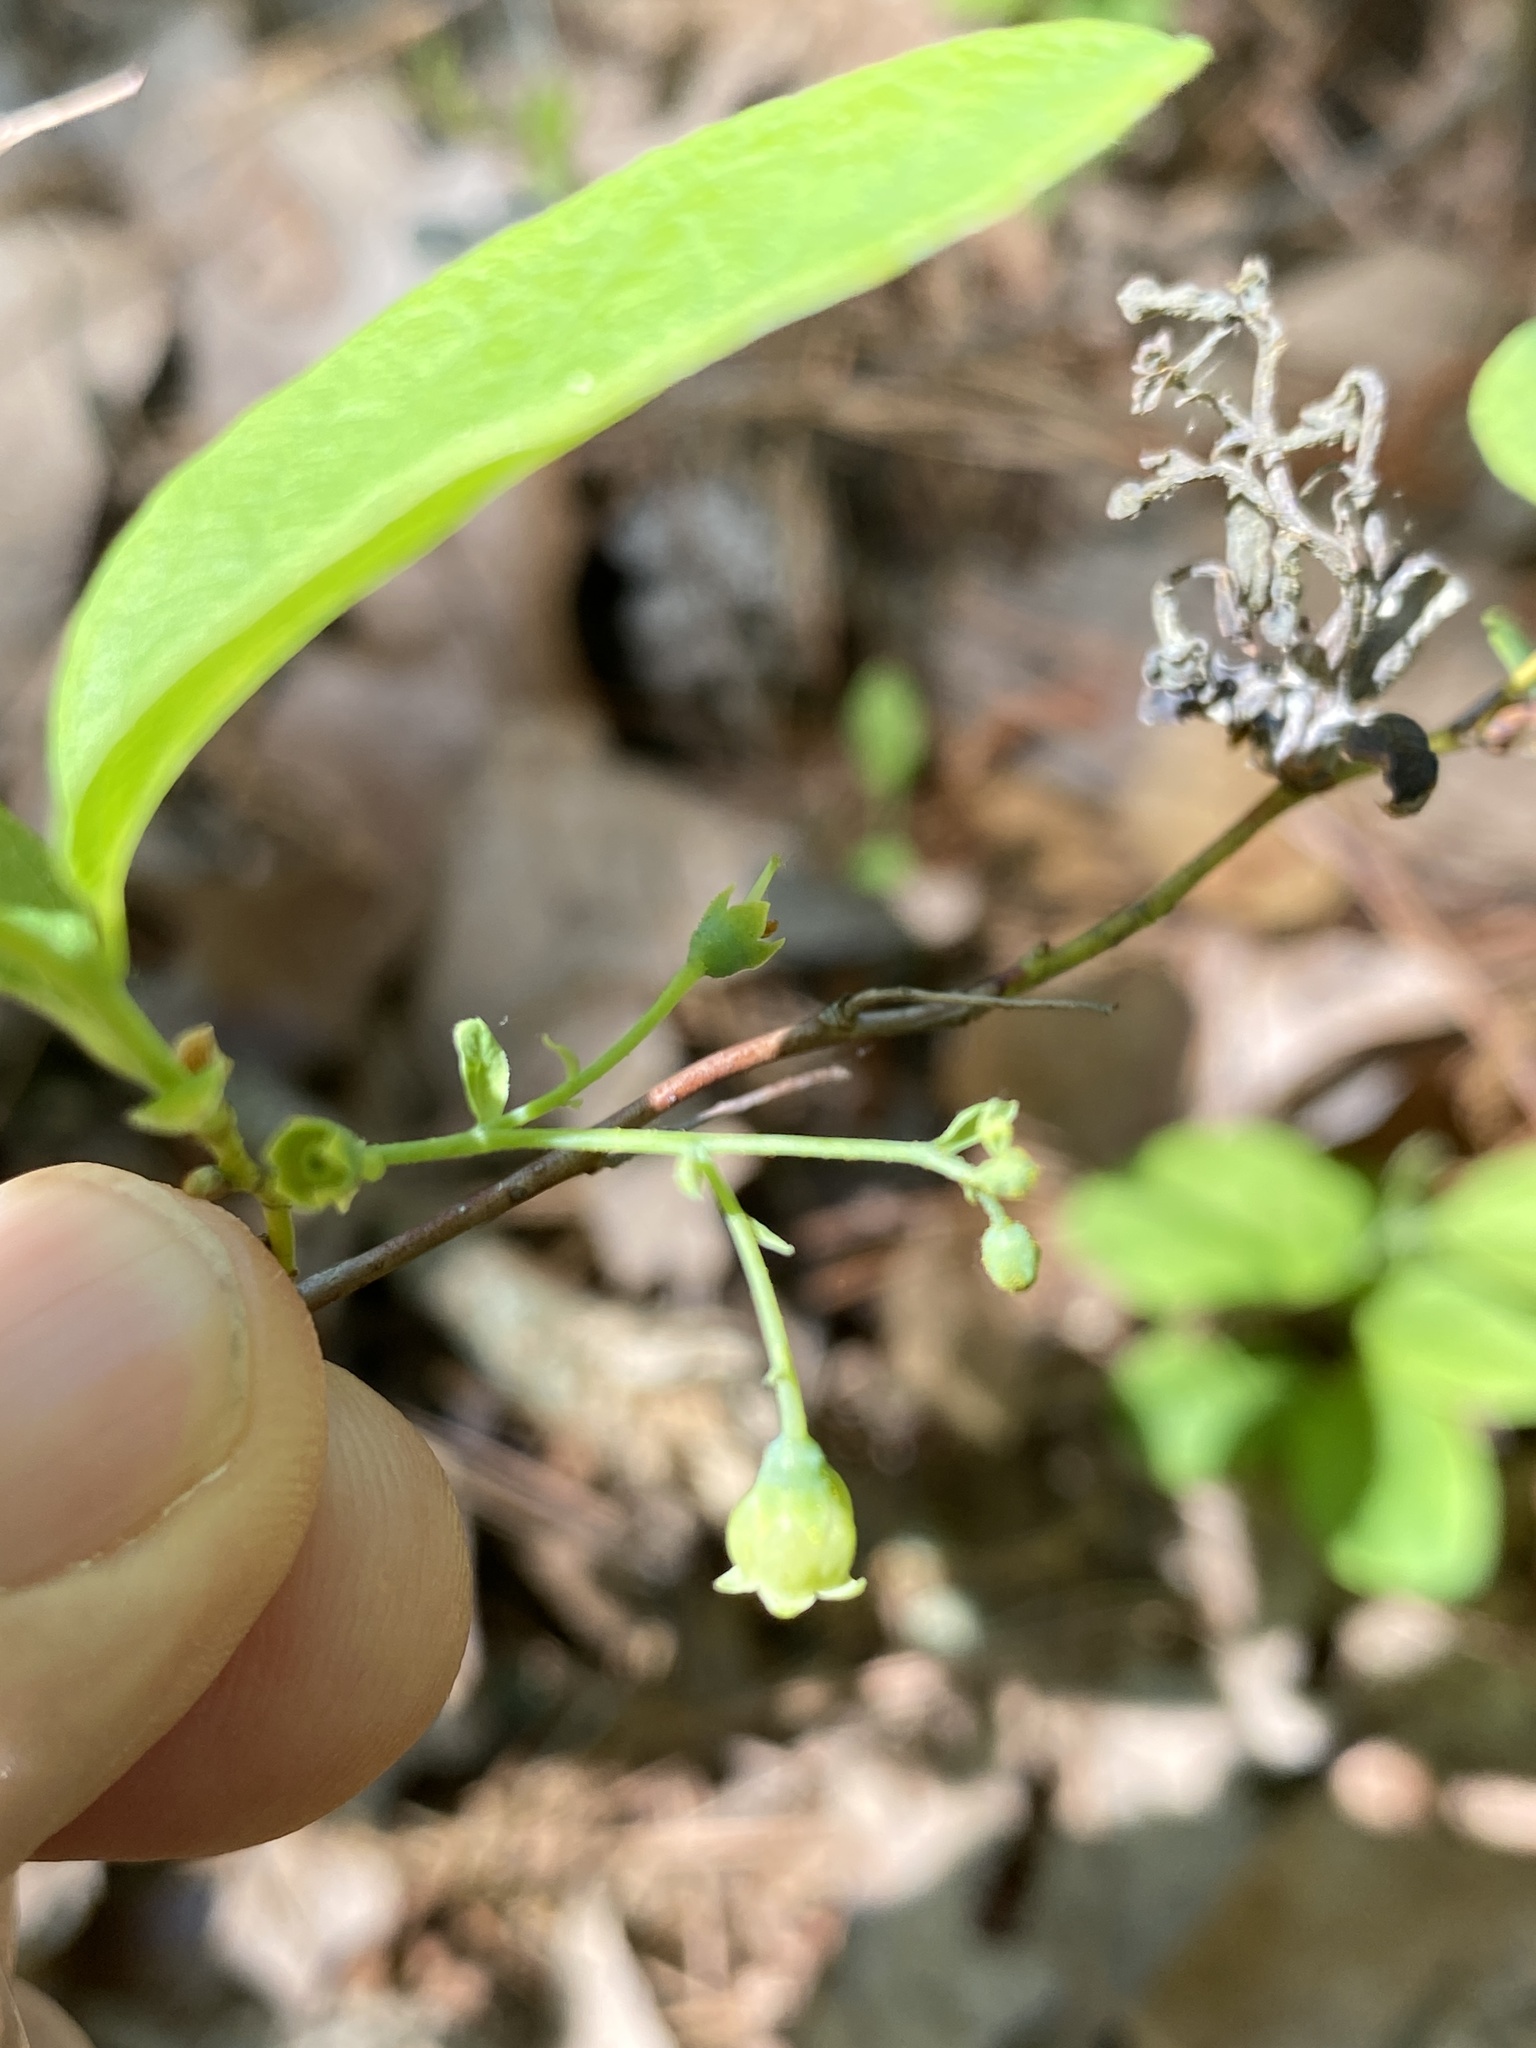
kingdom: Plantae
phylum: Tracheophyta
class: Magnoliopsida
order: Ericales
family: Ericaceae
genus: Gaylussacia
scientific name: Gaylussacia frondosa
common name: Dangleberry
